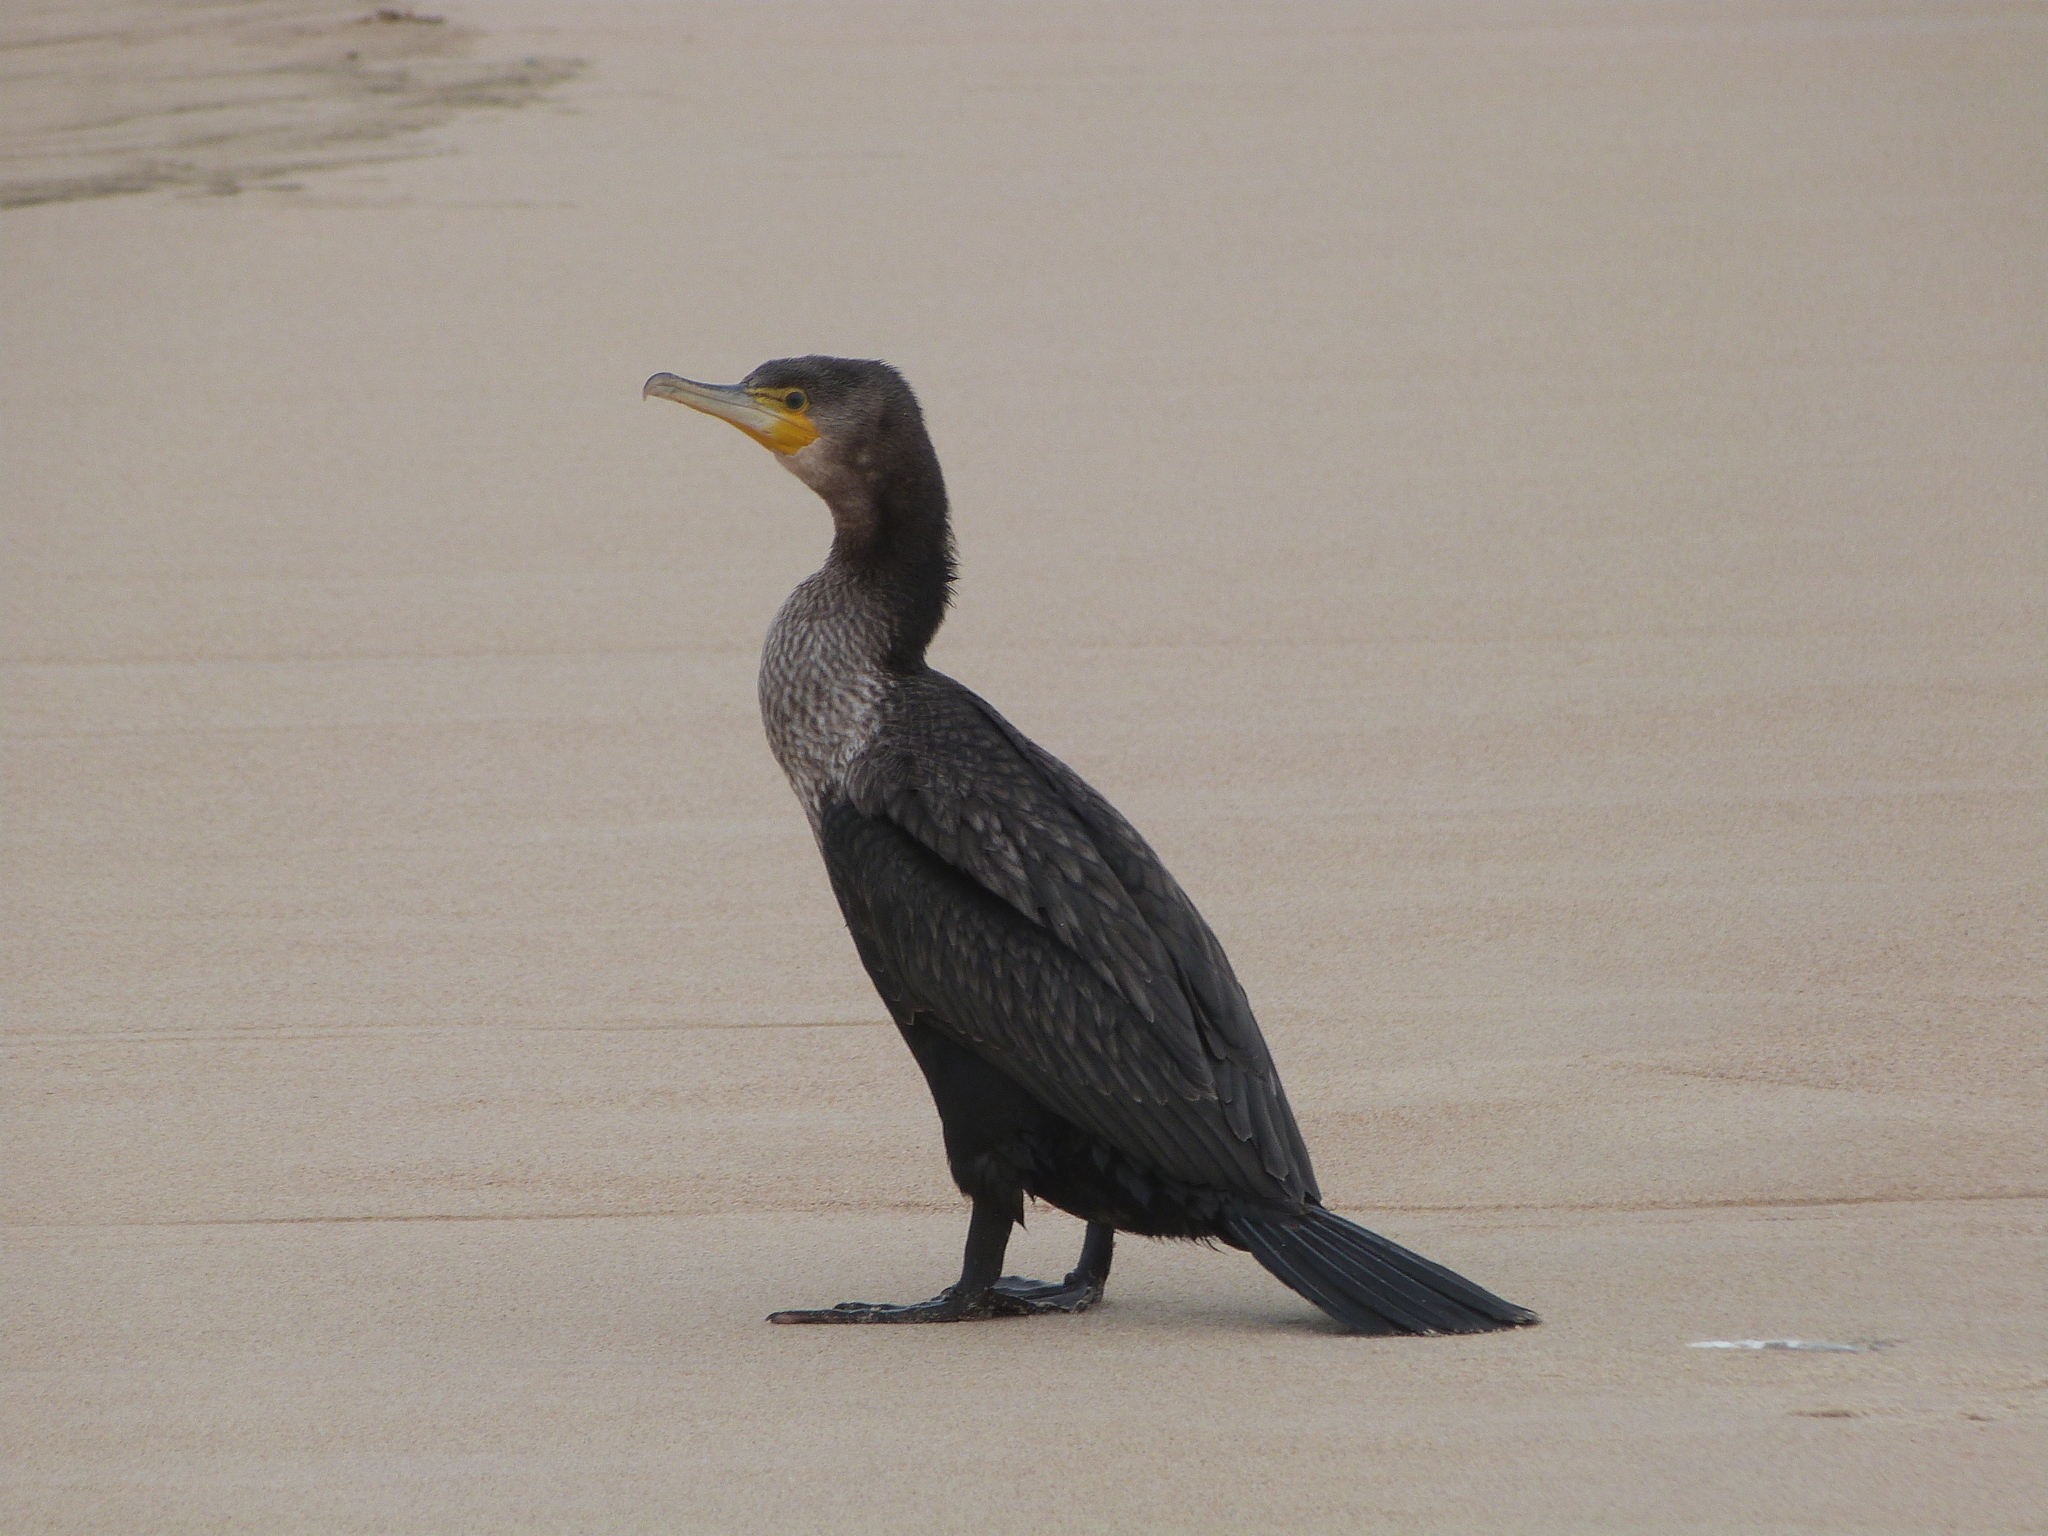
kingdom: Animalia
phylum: Chordata
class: Aves
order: Suliformes
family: Phalacrocoracidae
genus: Phalacrocorax
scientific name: Phalacrocorax carbo
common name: Great cormorant
